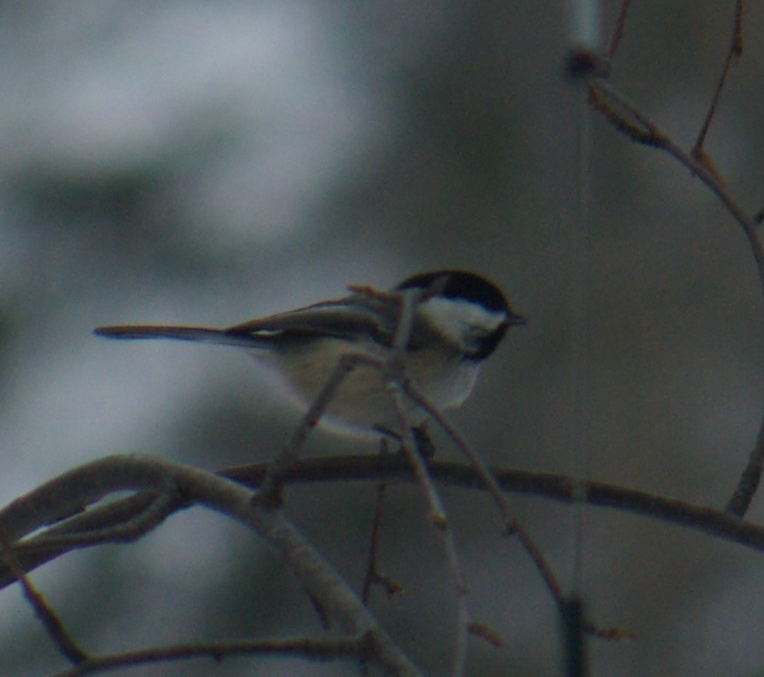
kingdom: Animalia
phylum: Chordata
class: Aves
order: Passeriformes
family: Paridae
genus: Poecile
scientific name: Poecile atricapillus
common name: Black-capped chickadee
